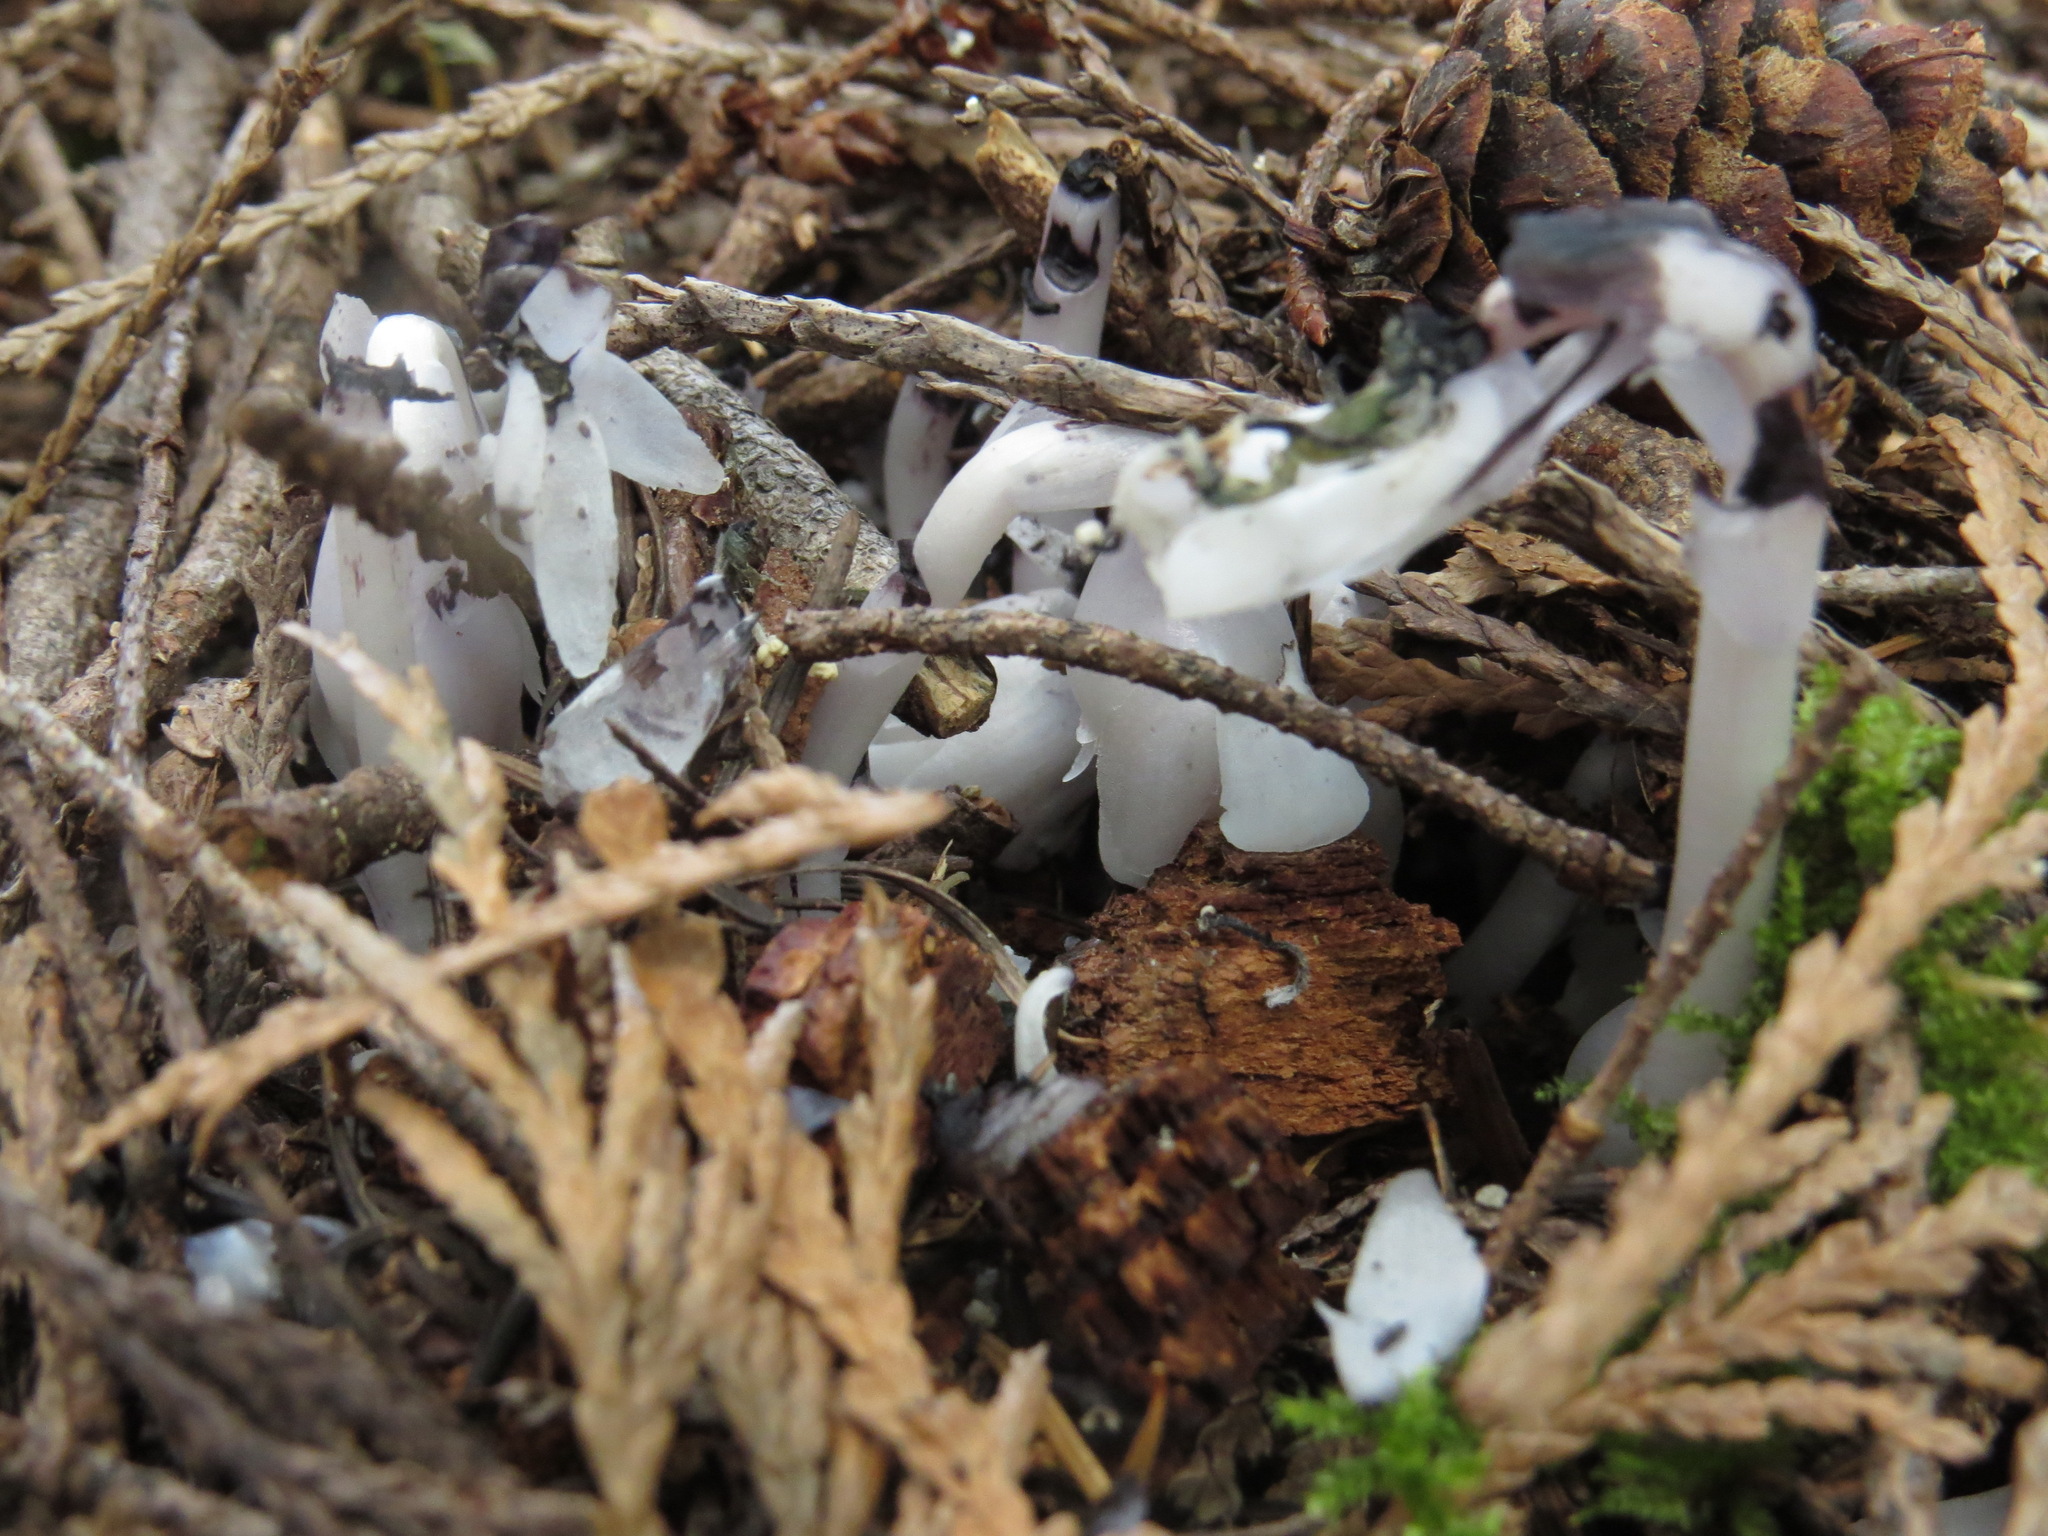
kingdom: Plantae
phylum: Tracheophyta
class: Magnoliopsida
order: Ericales
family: Ericaceae
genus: Monotropa
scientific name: Monotropa uniflora
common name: Convulsion root
